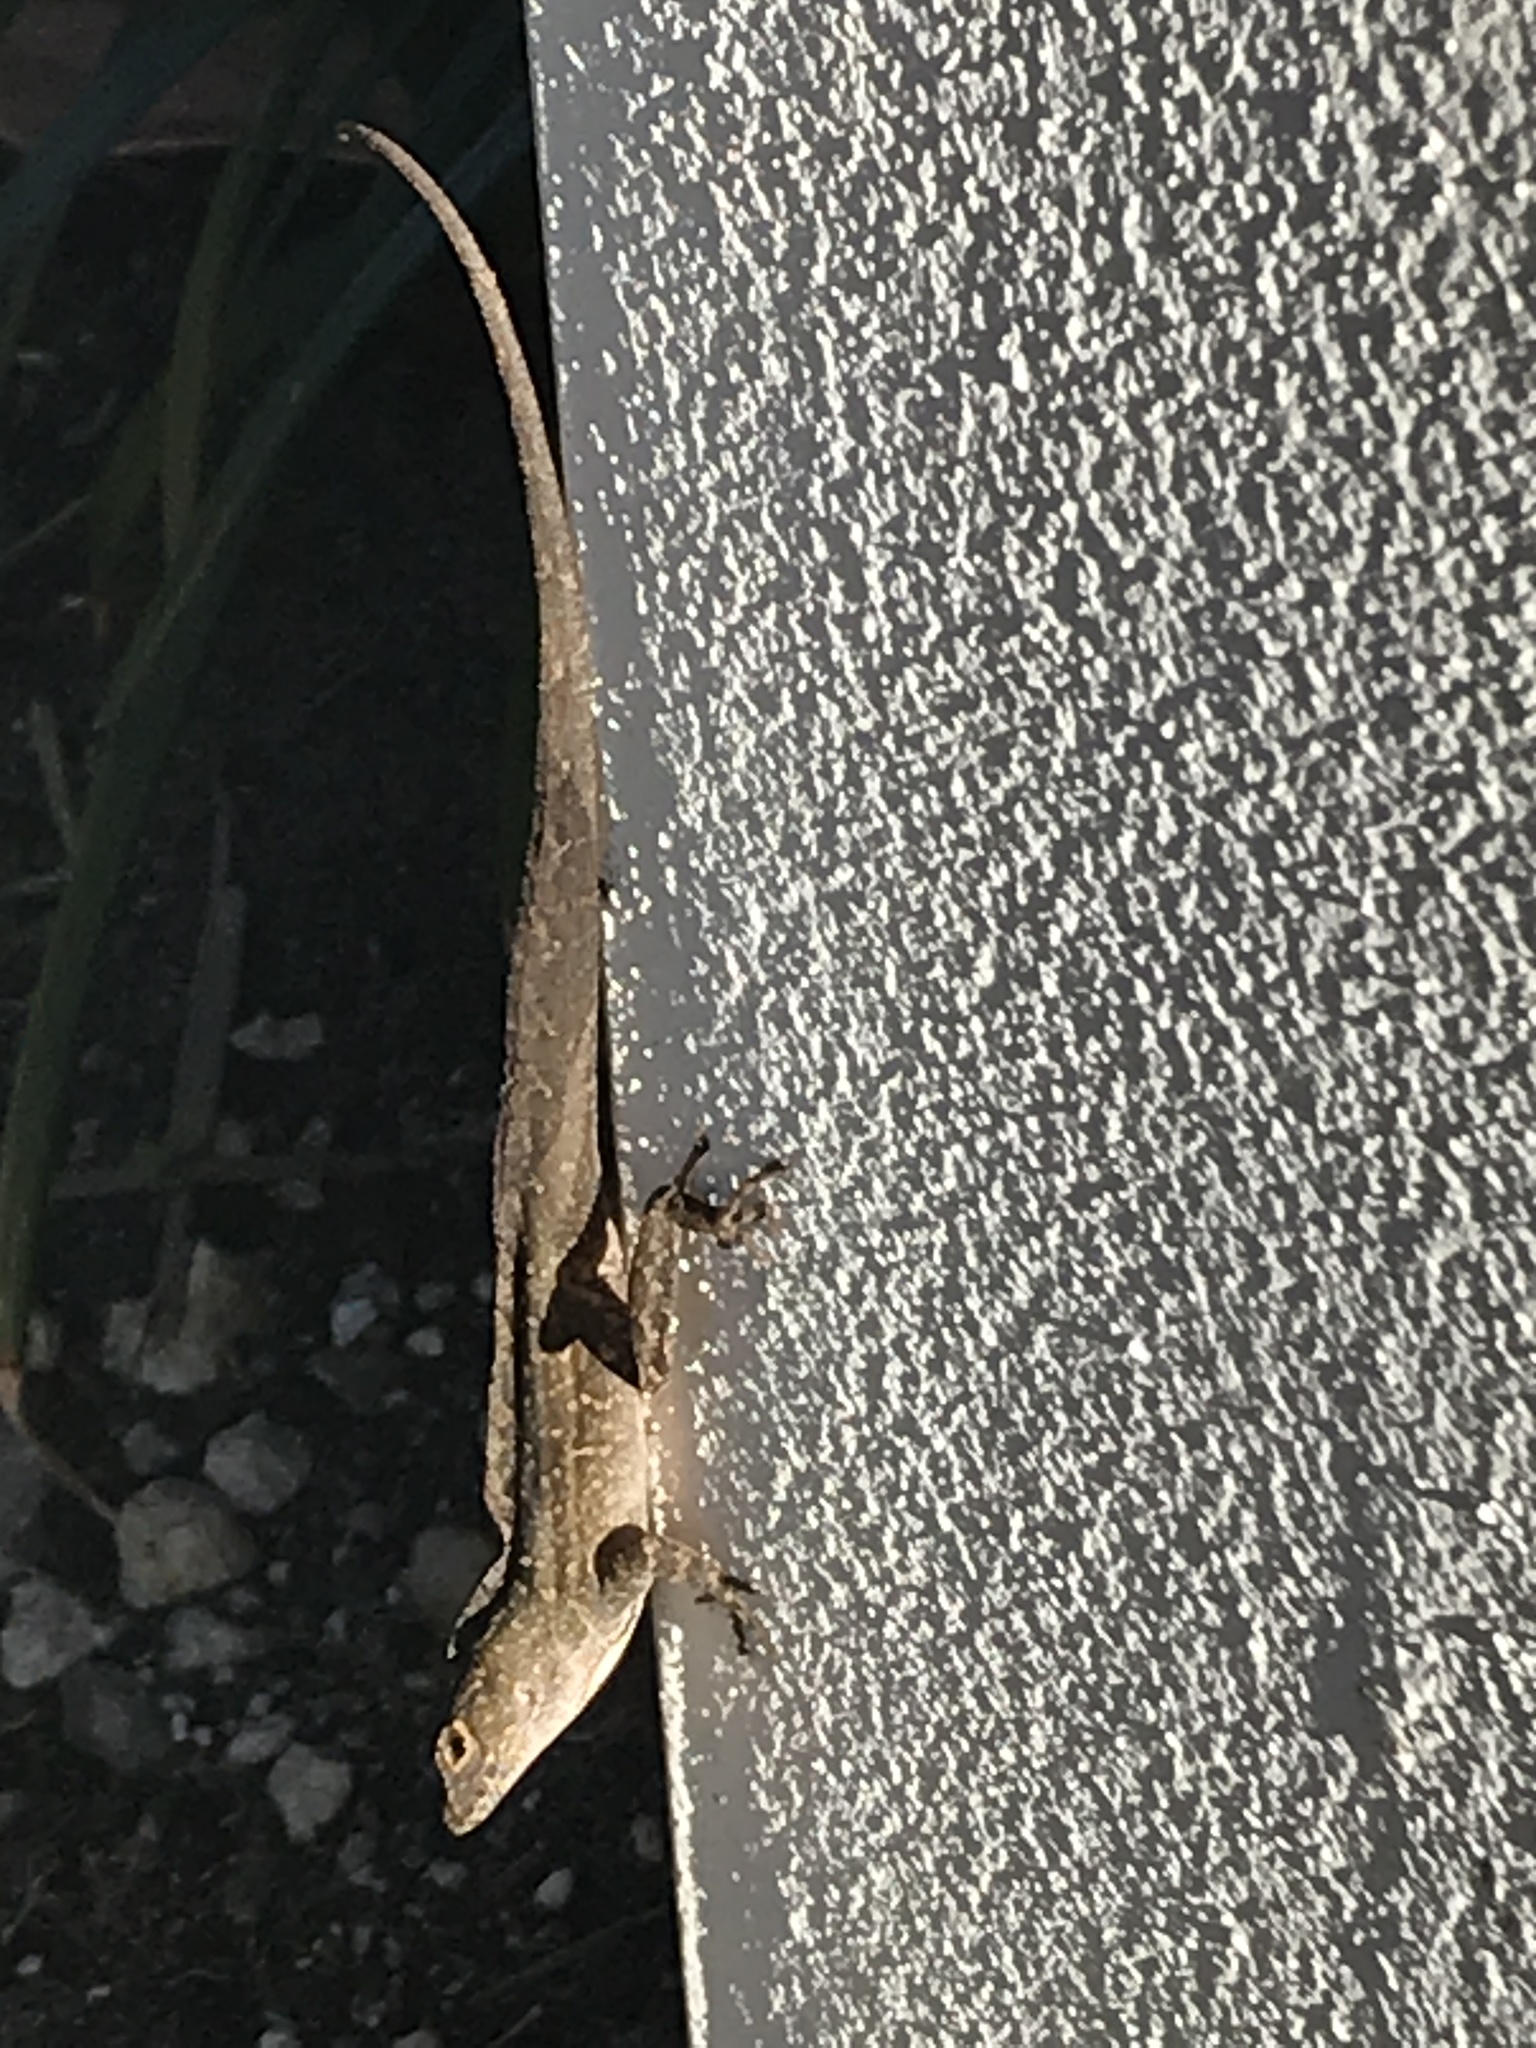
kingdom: Animalia
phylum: Chordata
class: Squamata
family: Dactyloidae
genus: Anolis
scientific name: Anolis sagrei
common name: Brown anole
